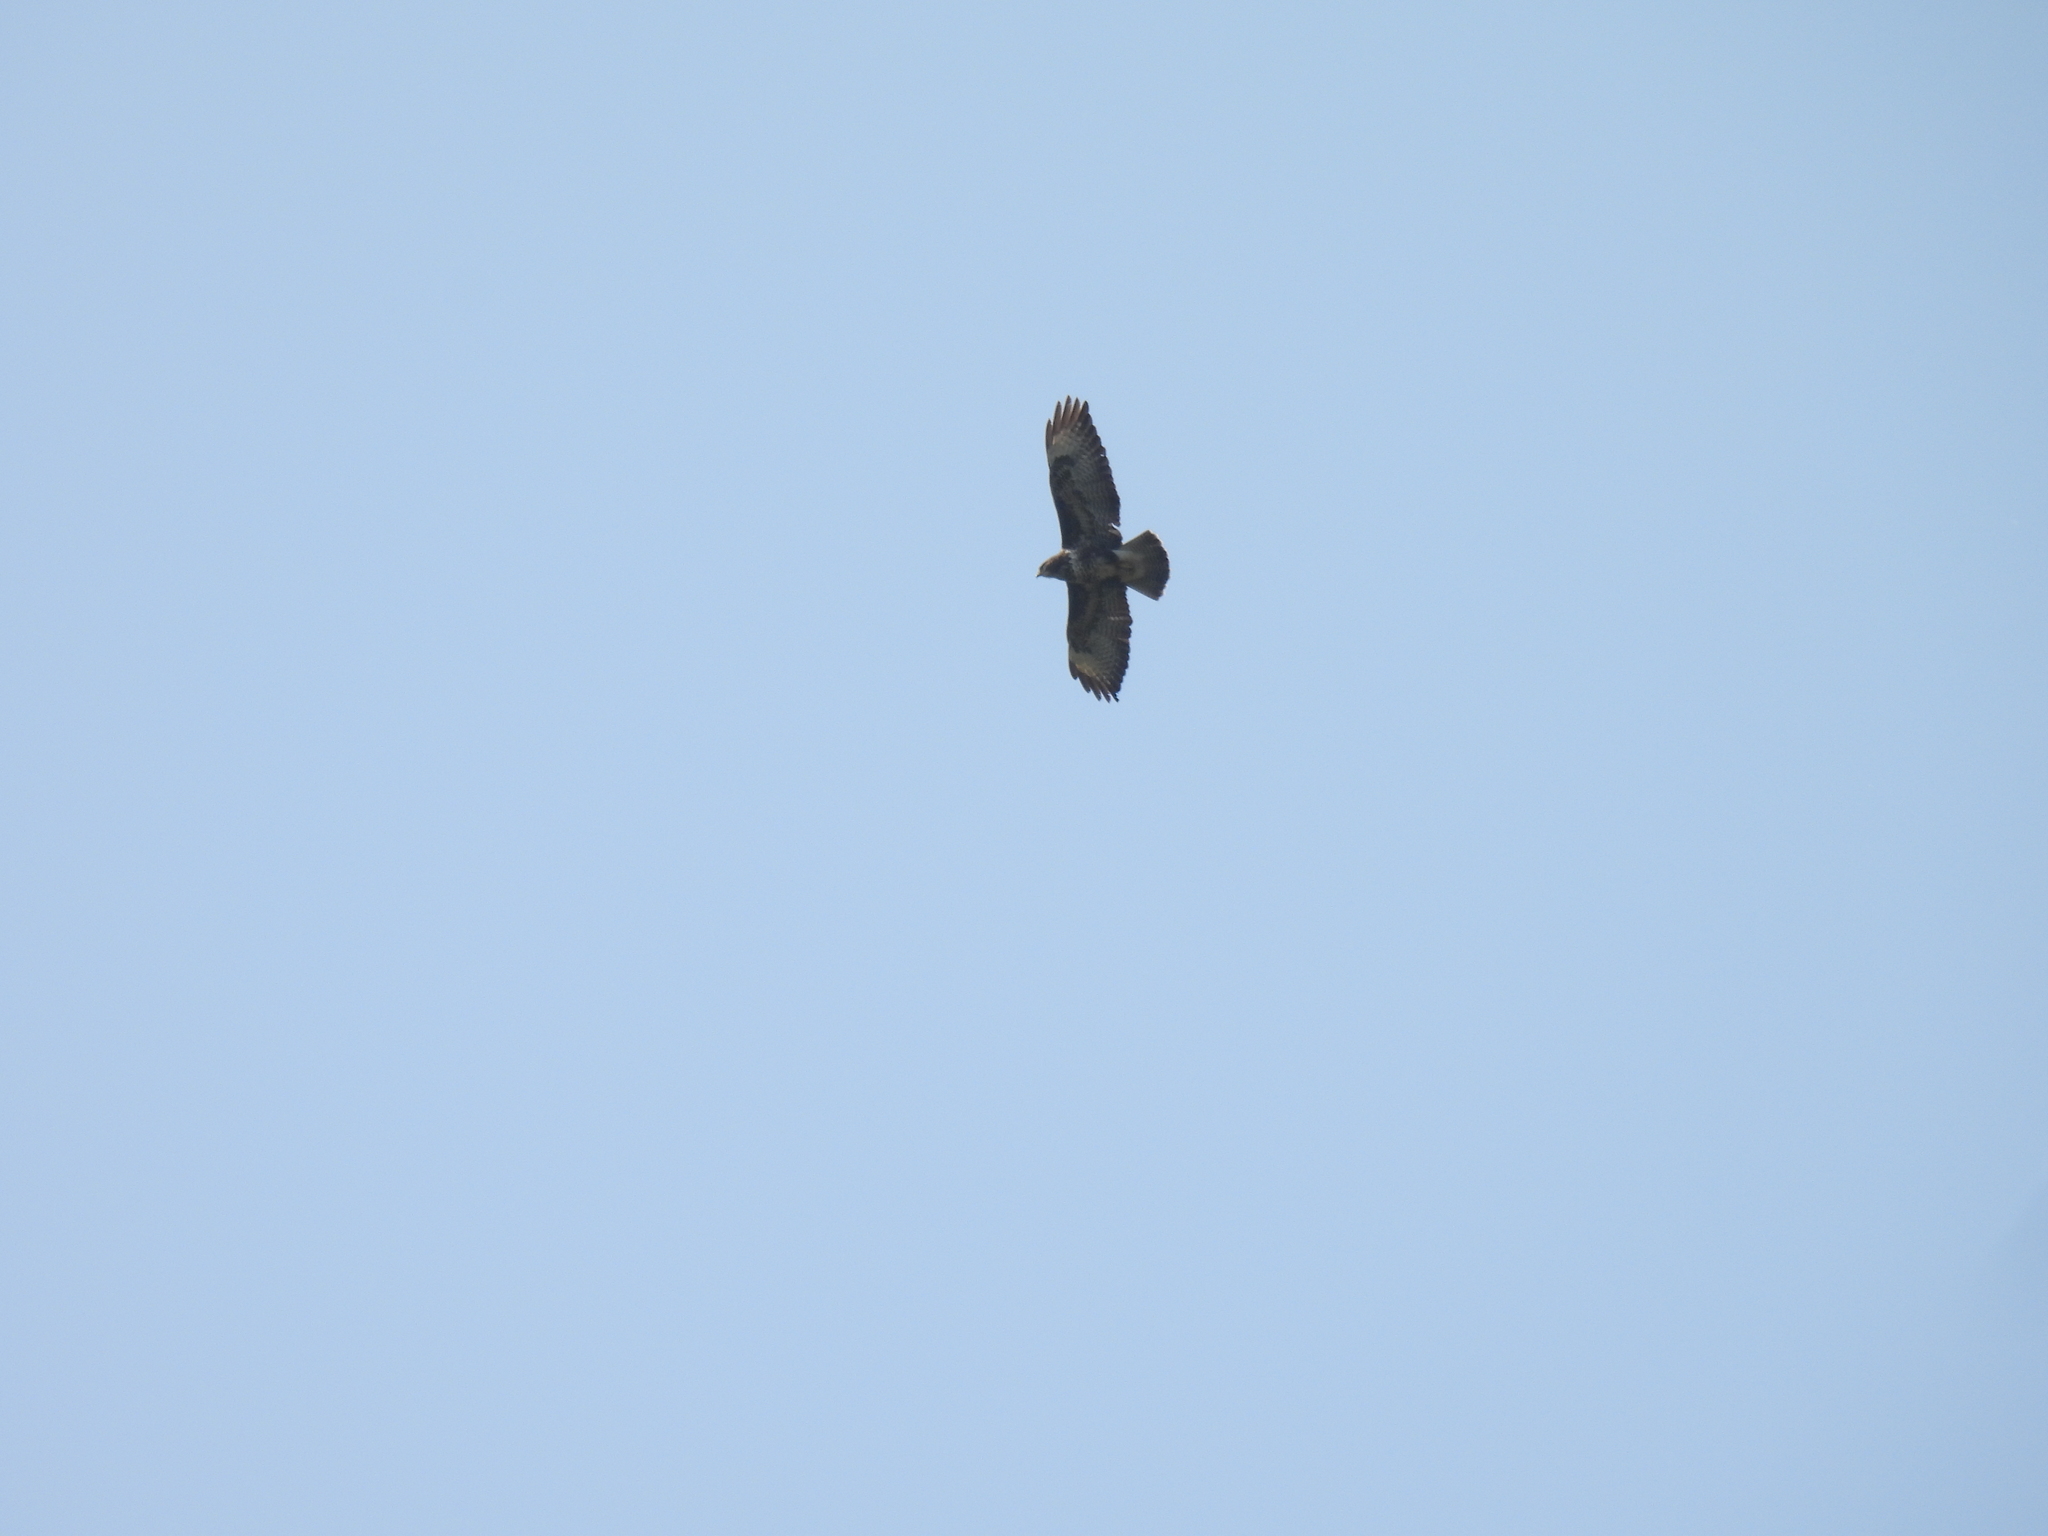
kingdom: Animalia
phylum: Chordata
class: Aves
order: Accipitriformes
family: Accipitridae
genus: Buteo
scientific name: Buteo buteo
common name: Common buzzard
